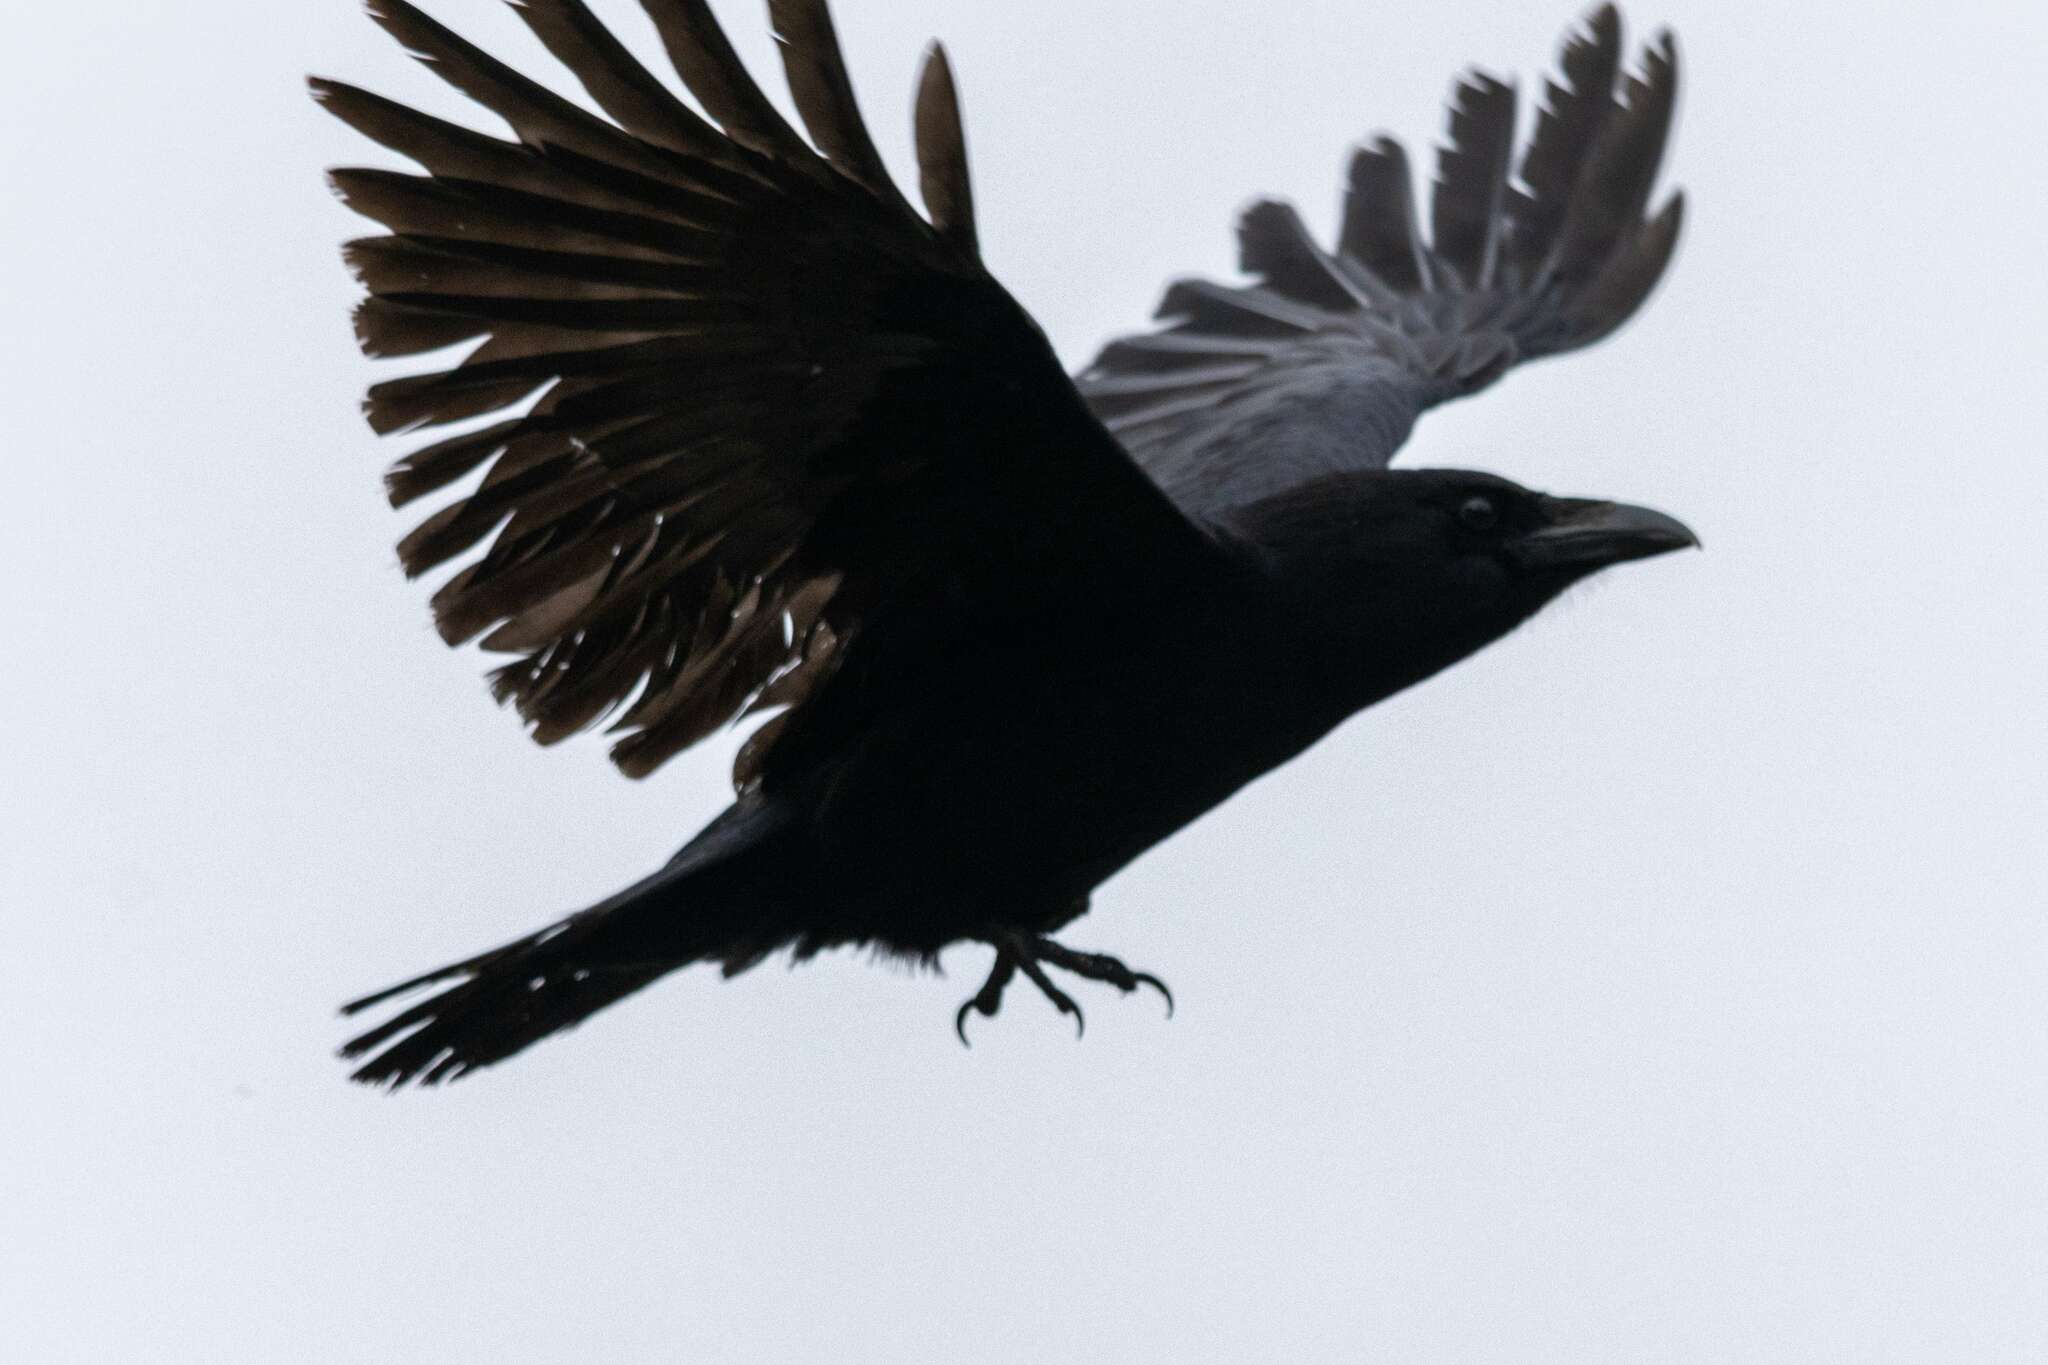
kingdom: Animalia
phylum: Chordata
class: Aves
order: Passeriformes
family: Corvidae
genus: Corvus
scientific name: Corvus corone
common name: Carrion crow
